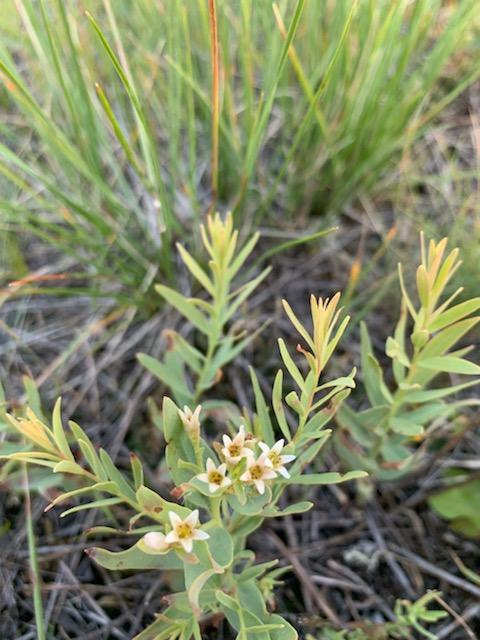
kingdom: Plantae
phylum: Tracheophyta
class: Magnoliopsida
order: Santalales
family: Comandraceae
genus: Comandra
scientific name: Comandra umbellata
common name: Bastard toadflax
